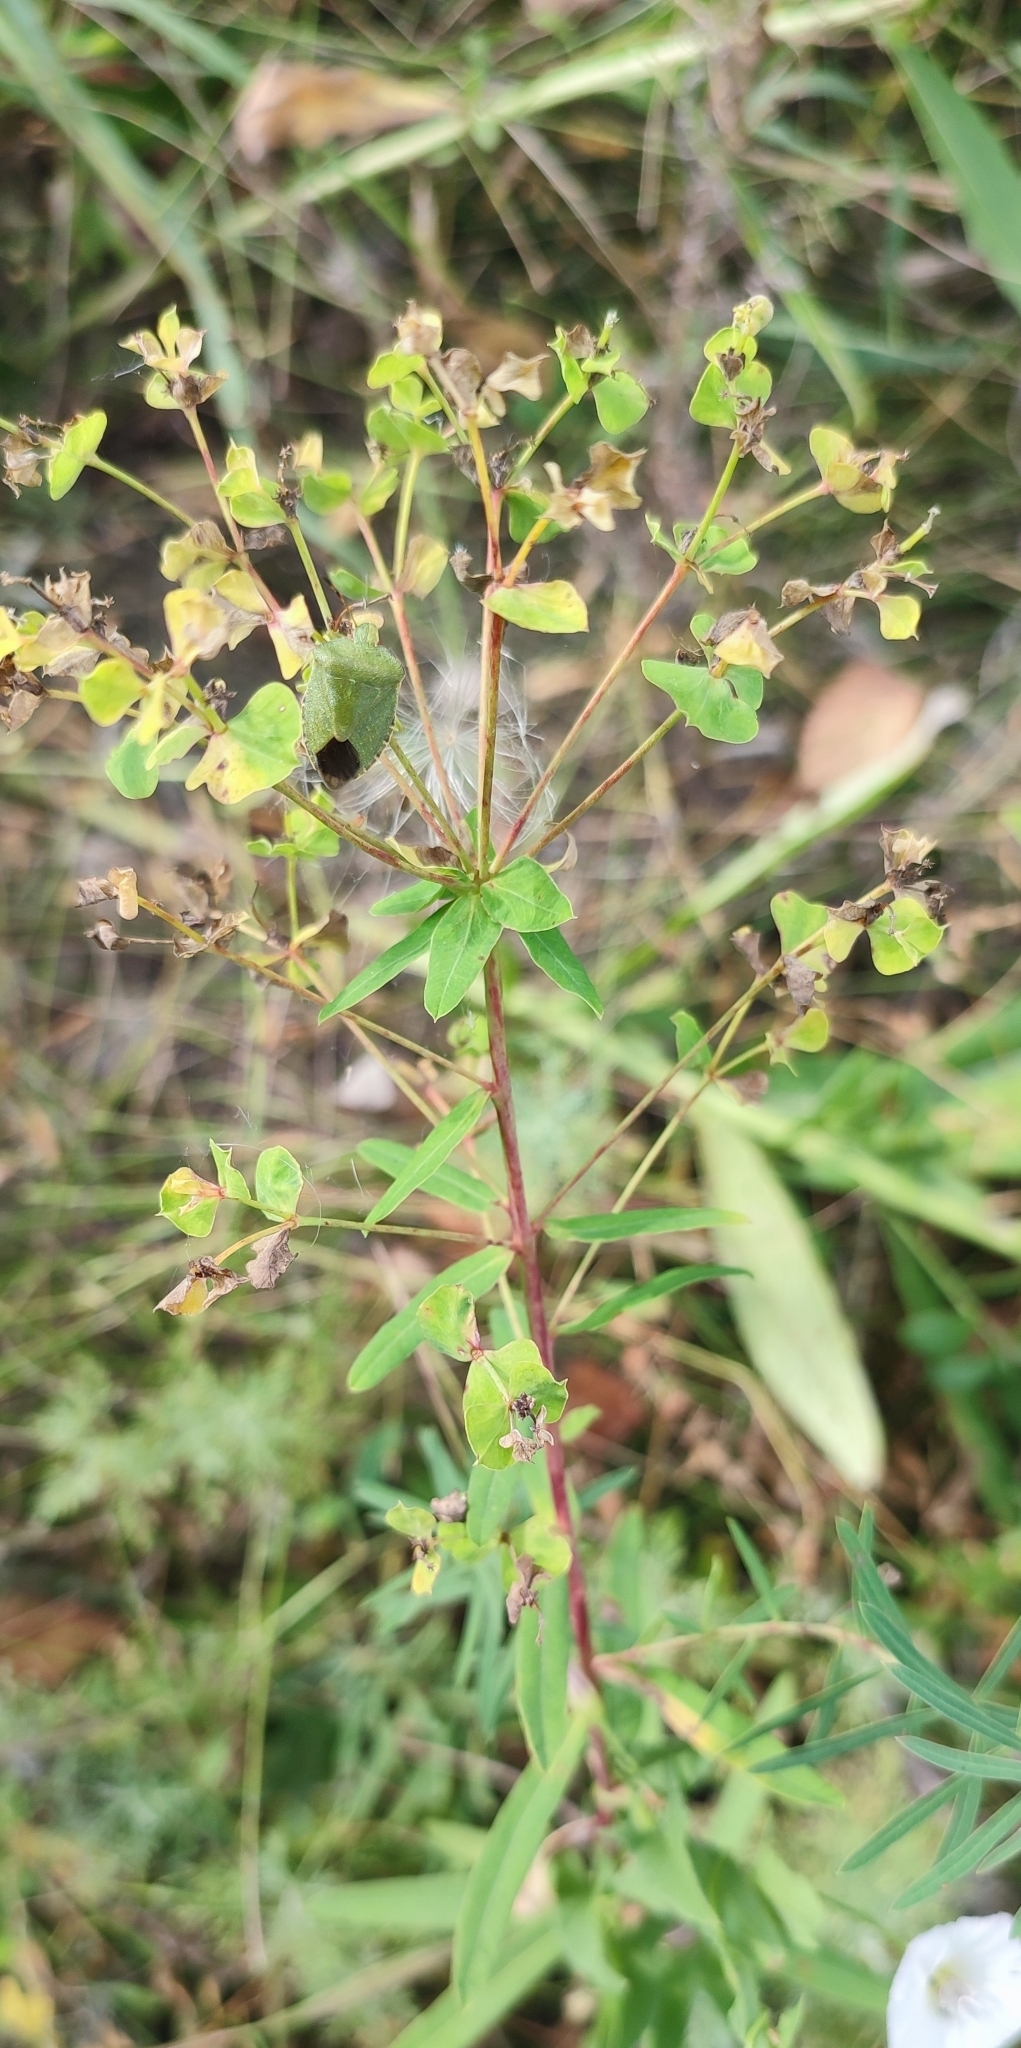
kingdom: Plantae
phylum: Tracheophyta
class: Magnoliopsida
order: Malpighiales
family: Euphorbiaceae
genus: Euphorbia
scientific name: Euphorbia virgata
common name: Leafy spurge
